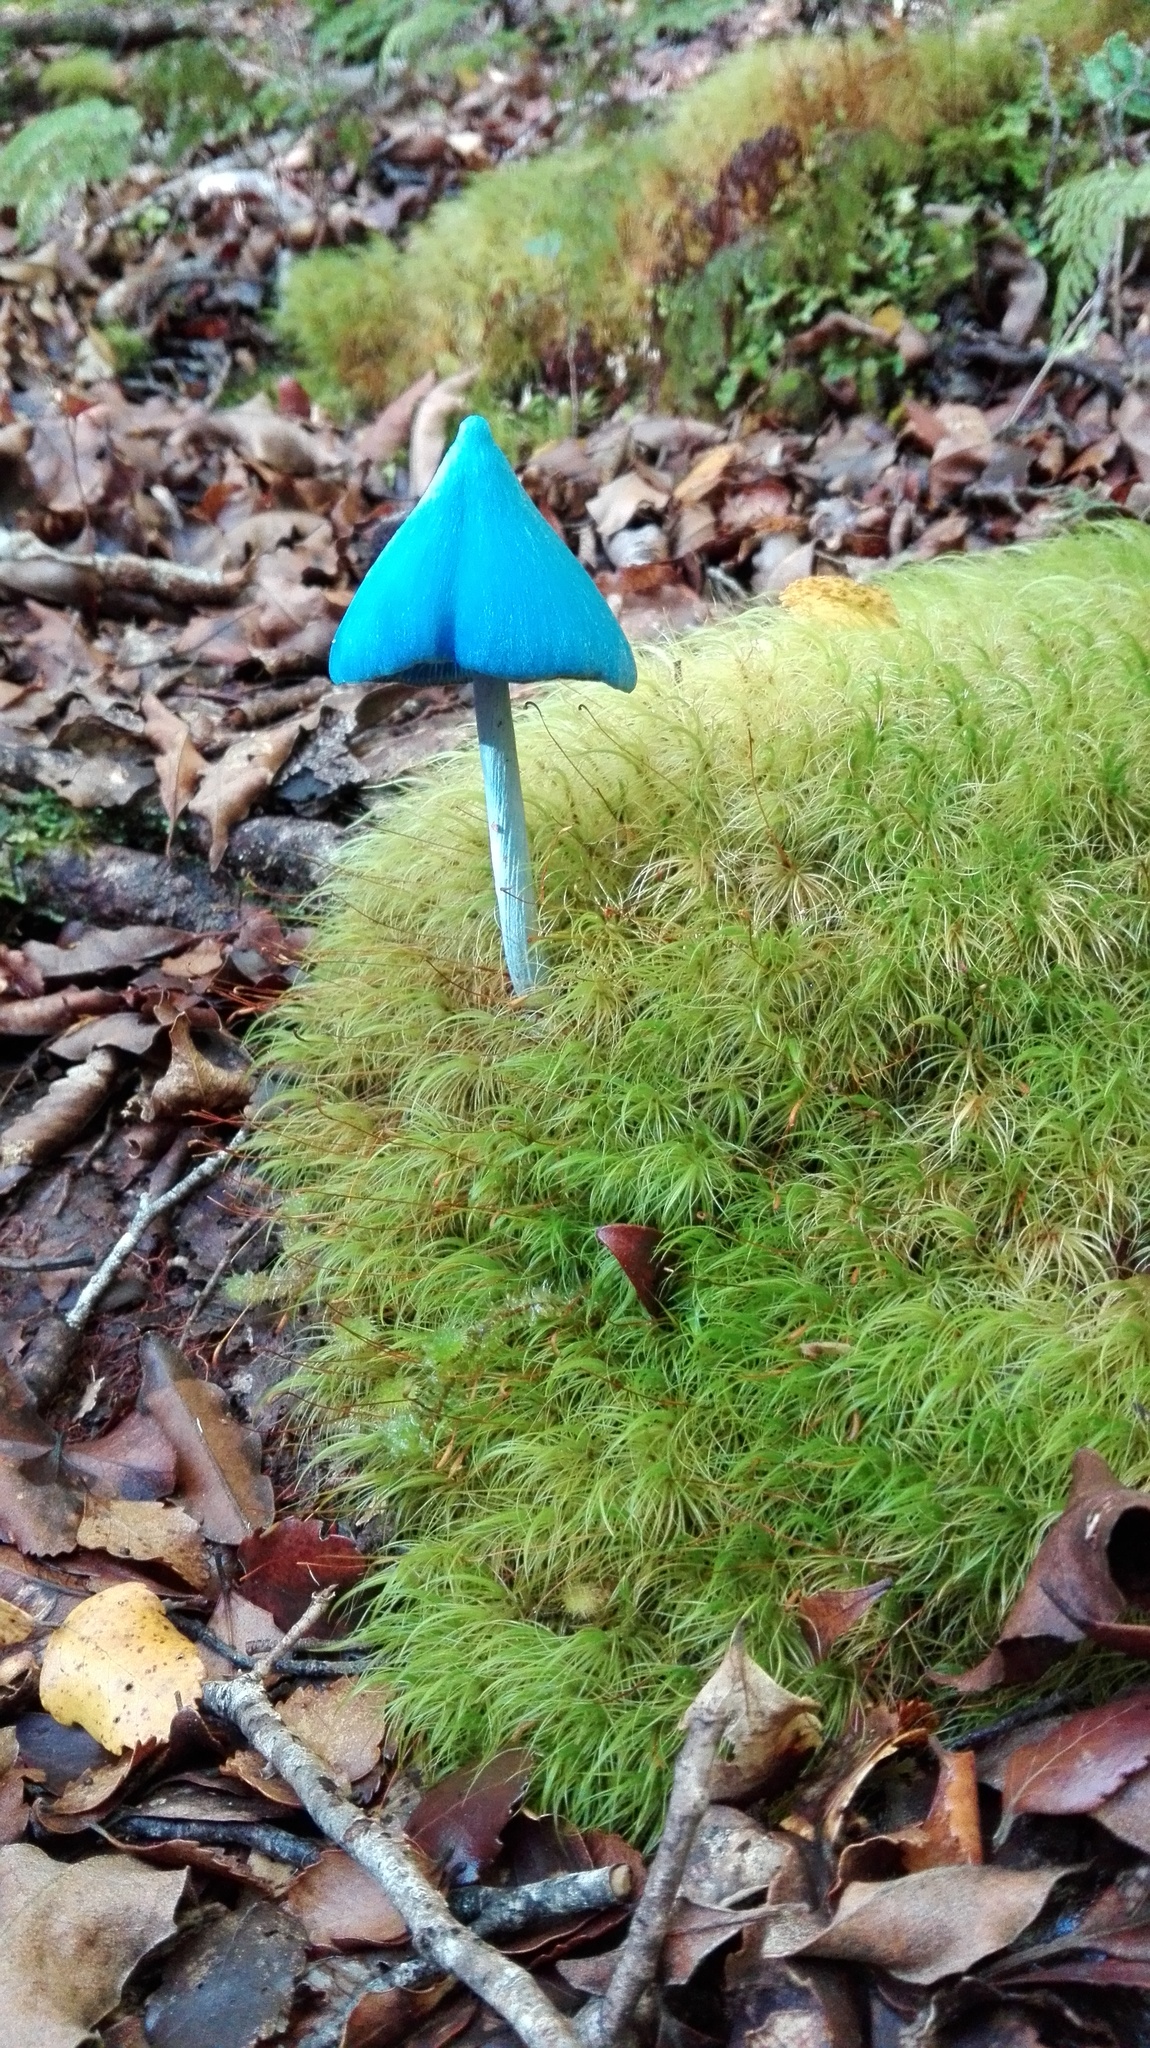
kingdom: Fungi
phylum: Basidiomycota
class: Agaricomycetes
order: Agaricales
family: Entolomataceae
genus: Entoloma
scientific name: Entoloma hochstetteri
